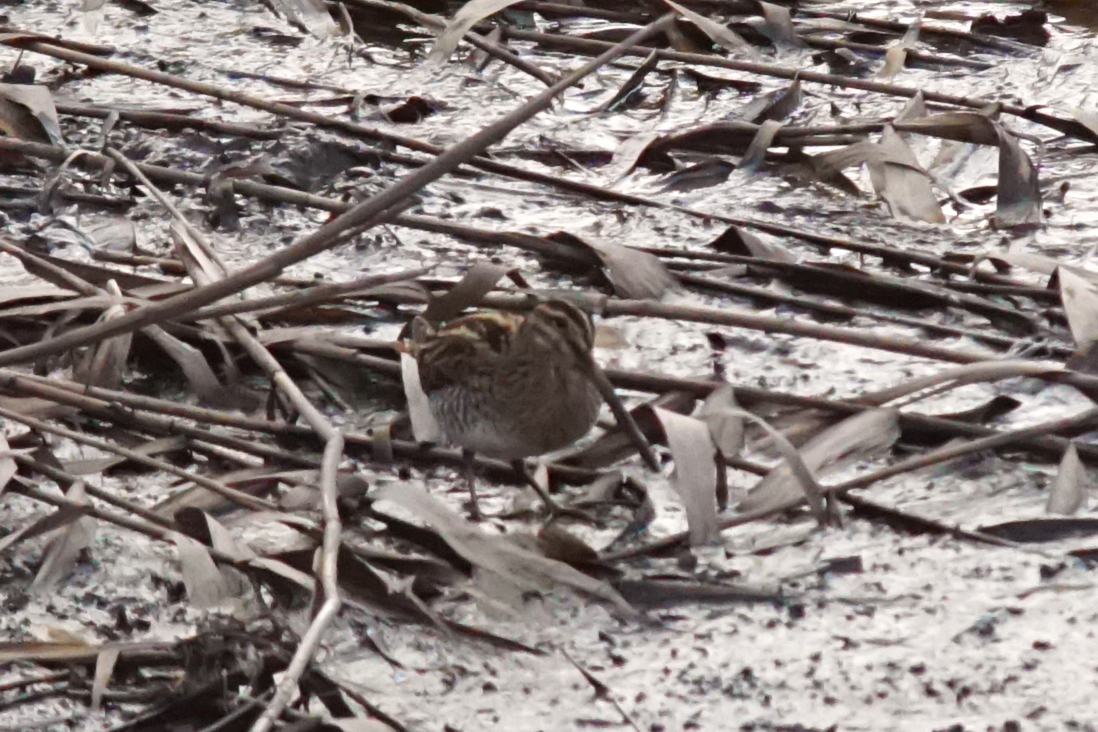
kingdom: Animalia
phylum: Chordata
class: Aves
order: Charadriiformes
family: Scolopacidae
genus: Gallinago
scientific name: Gallinago gallinago
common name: Common snipe
